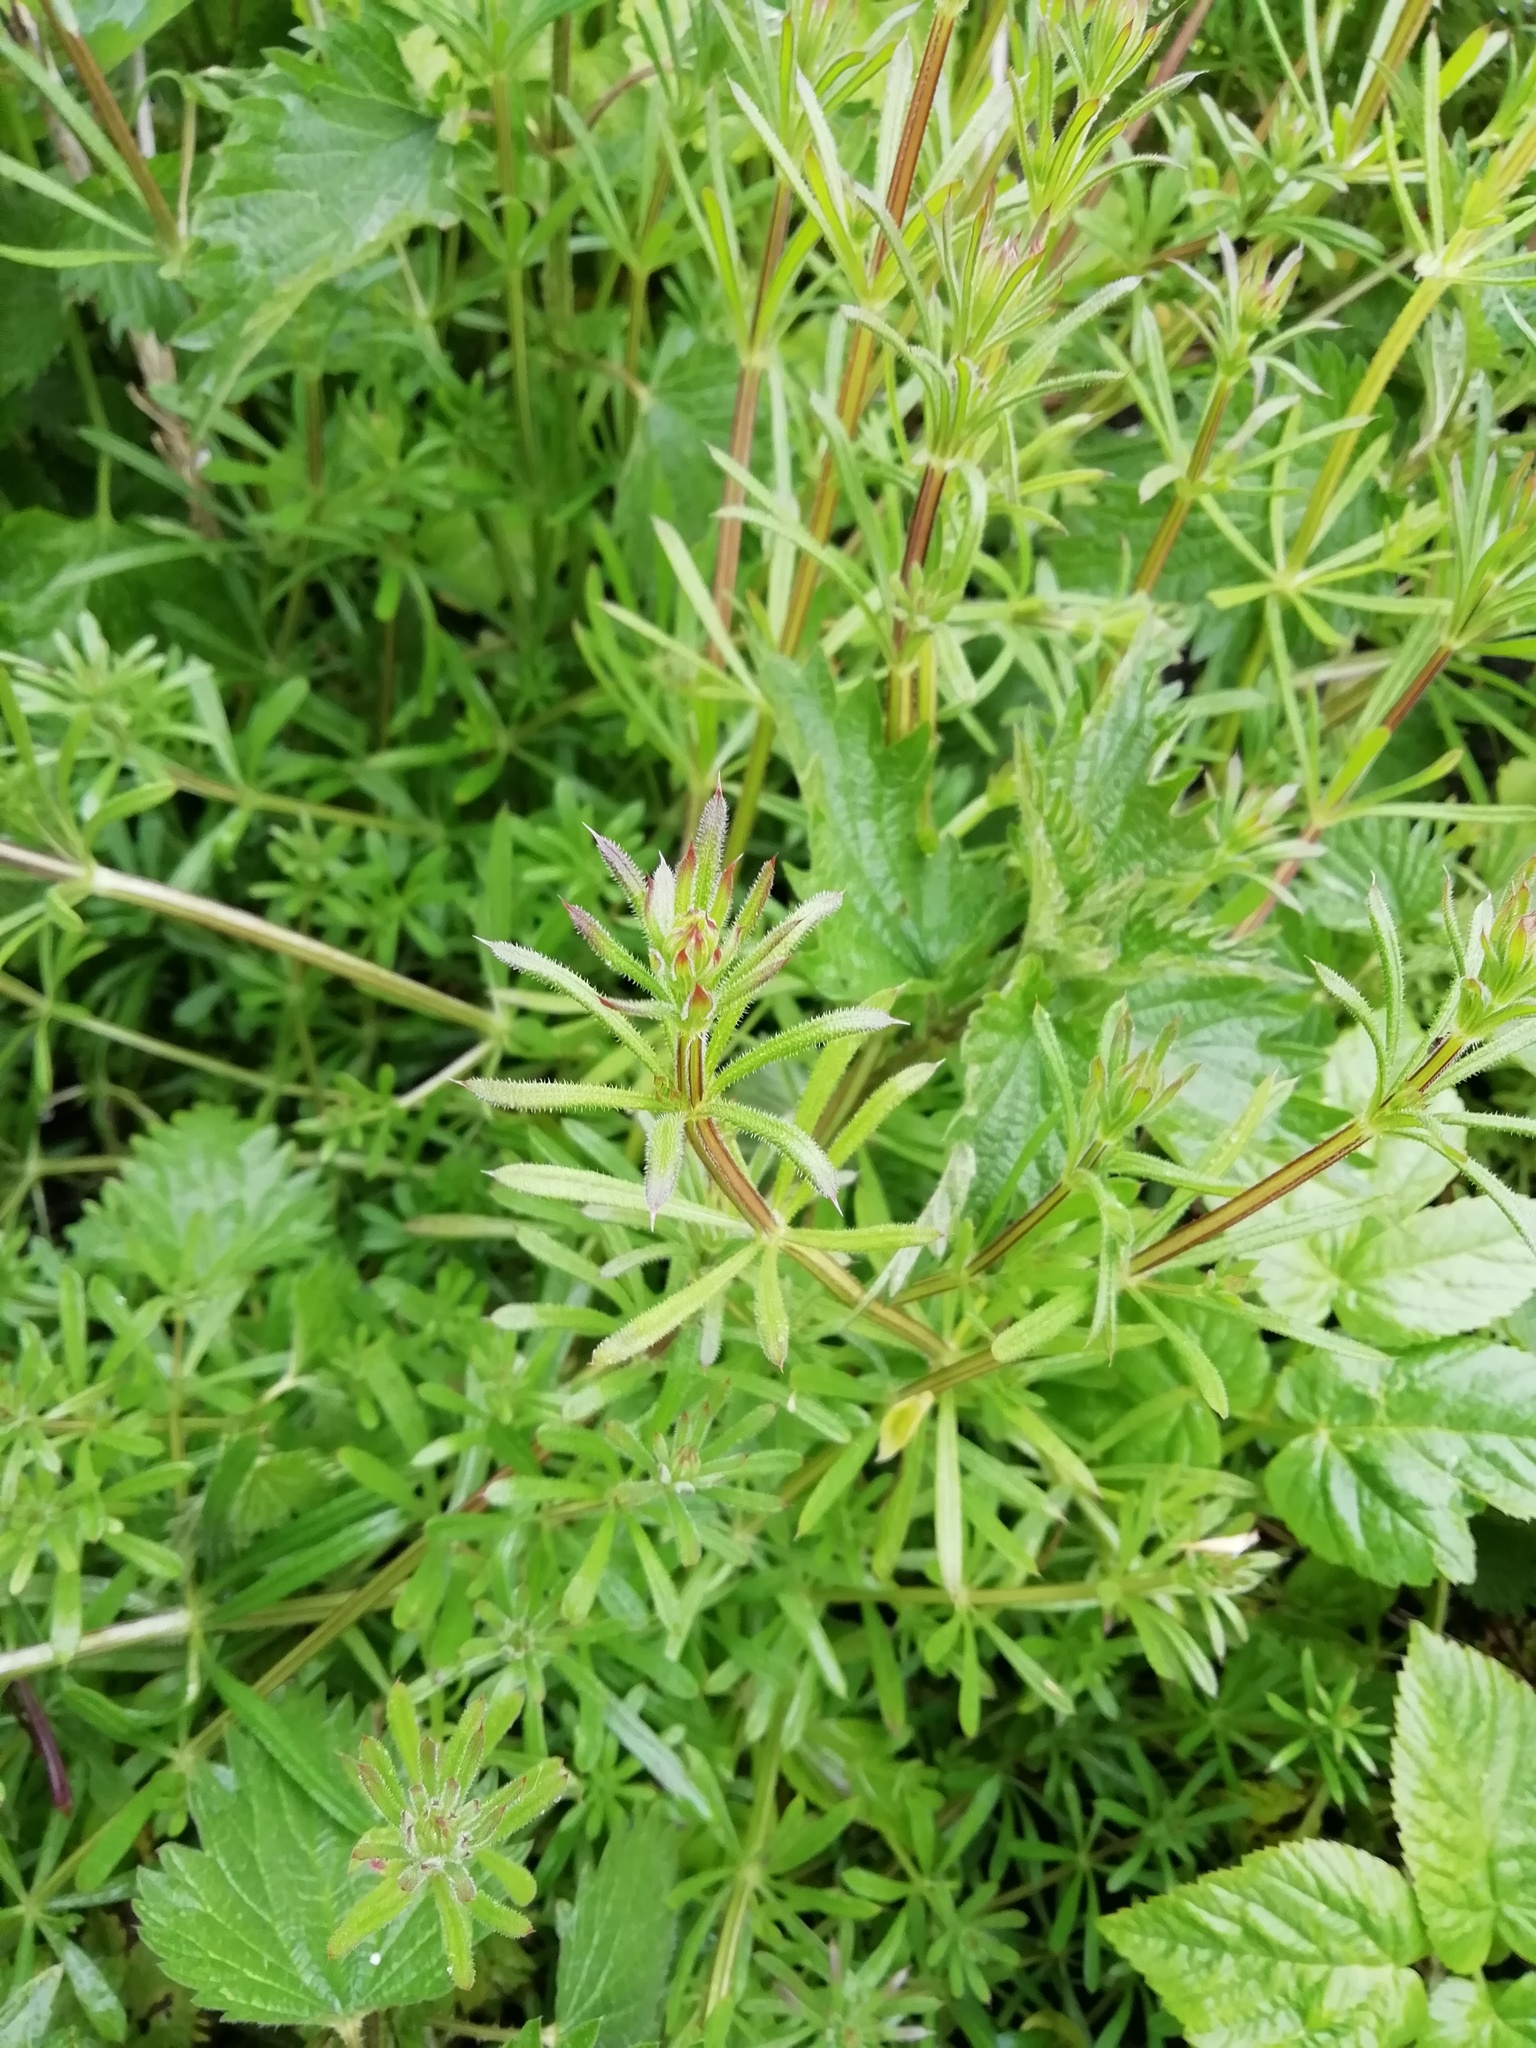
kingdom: Plantae
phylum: Tracheophyta
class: Magnoliopsida
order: Gentianales
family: Rubiaceae
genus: Galium
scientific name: Galium aparine
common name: Cleavers
